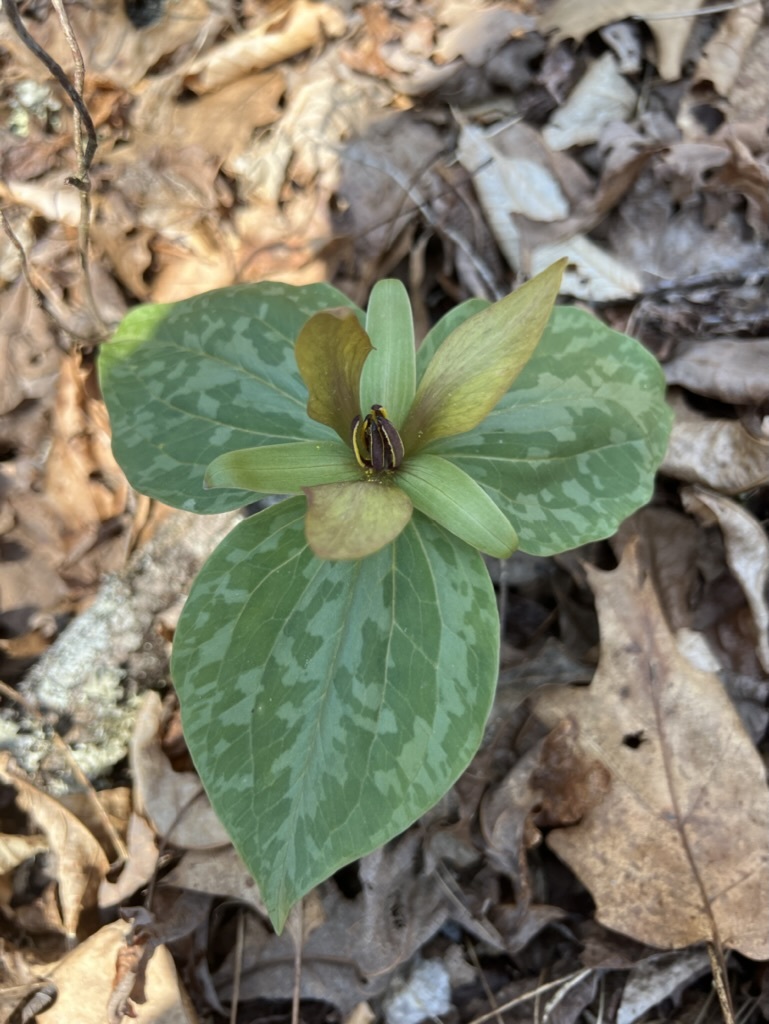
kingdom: Plantae
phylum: Tracheophyta
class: Liliopsida
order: Liliales
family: Melanthiaceae
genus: Trillium
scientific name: Trillium cuneatum
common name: Cuneate trillium
